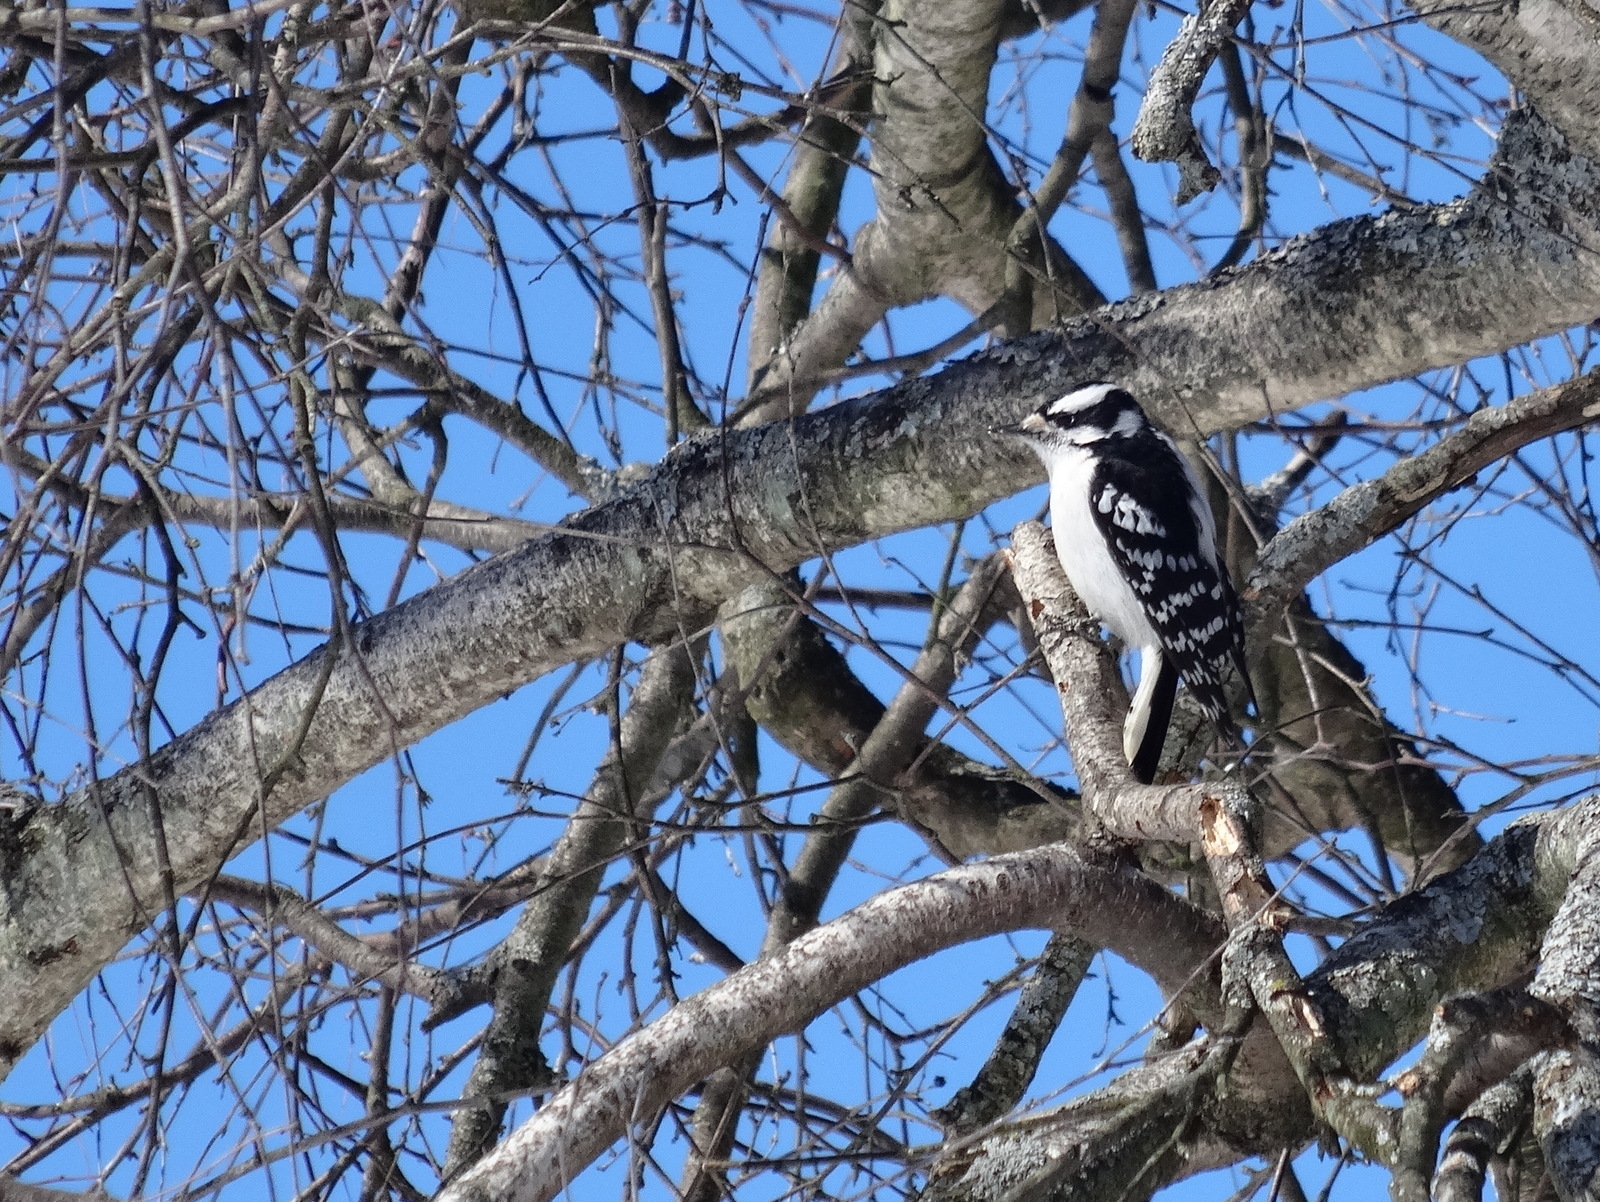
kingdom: Animalia
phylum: Chordata
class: Aves
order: Piciformes
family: Picidae
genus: Dryobates
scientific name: Dryobates pubescens
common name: Downy woodpecker
